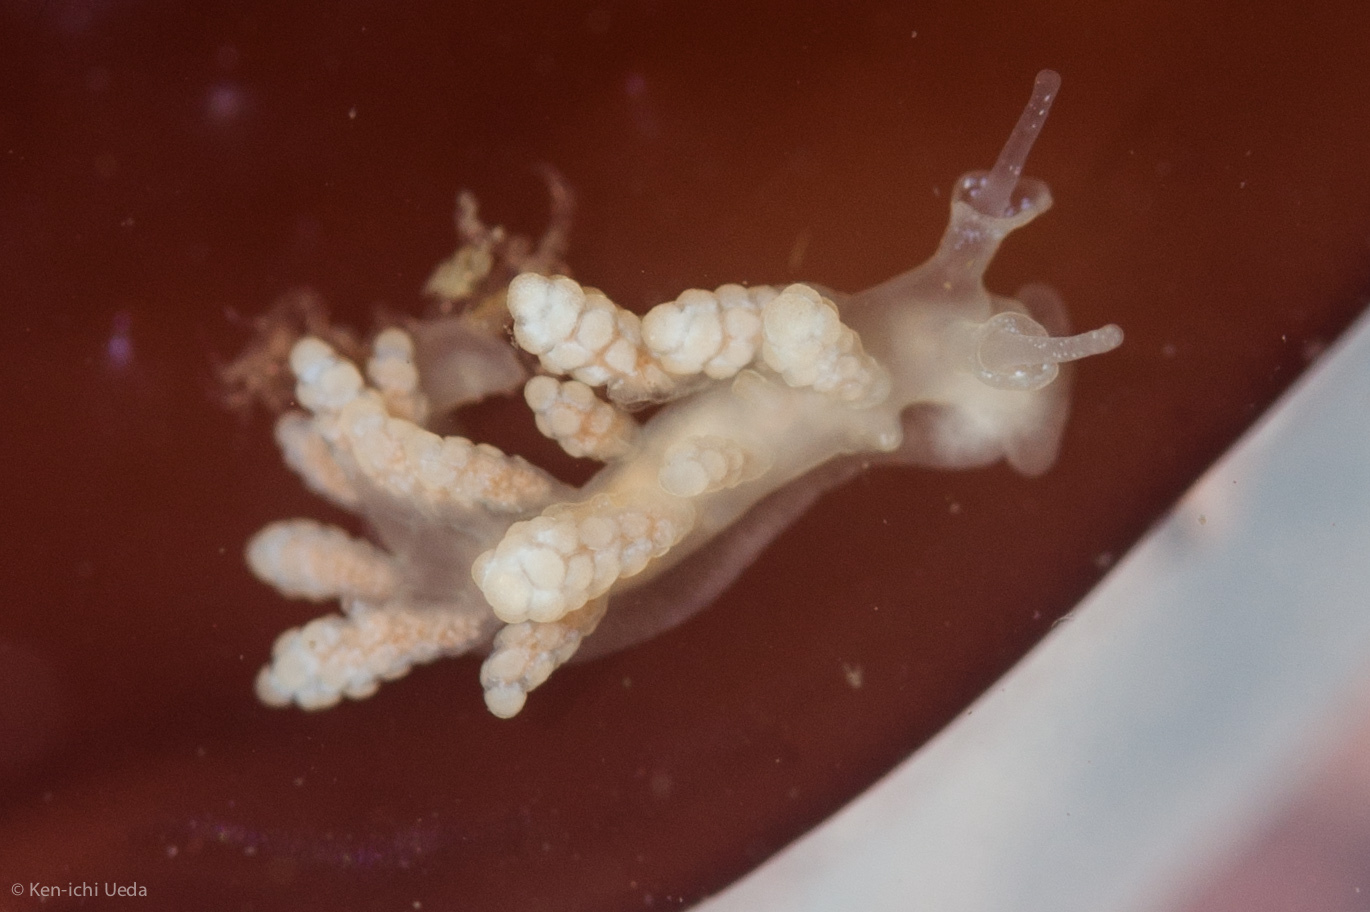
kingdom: Animalia
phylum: Mollusca
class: Gastropoda
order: Nudibranchia
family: Dotidae
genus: Doto
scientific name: Doto amyra
